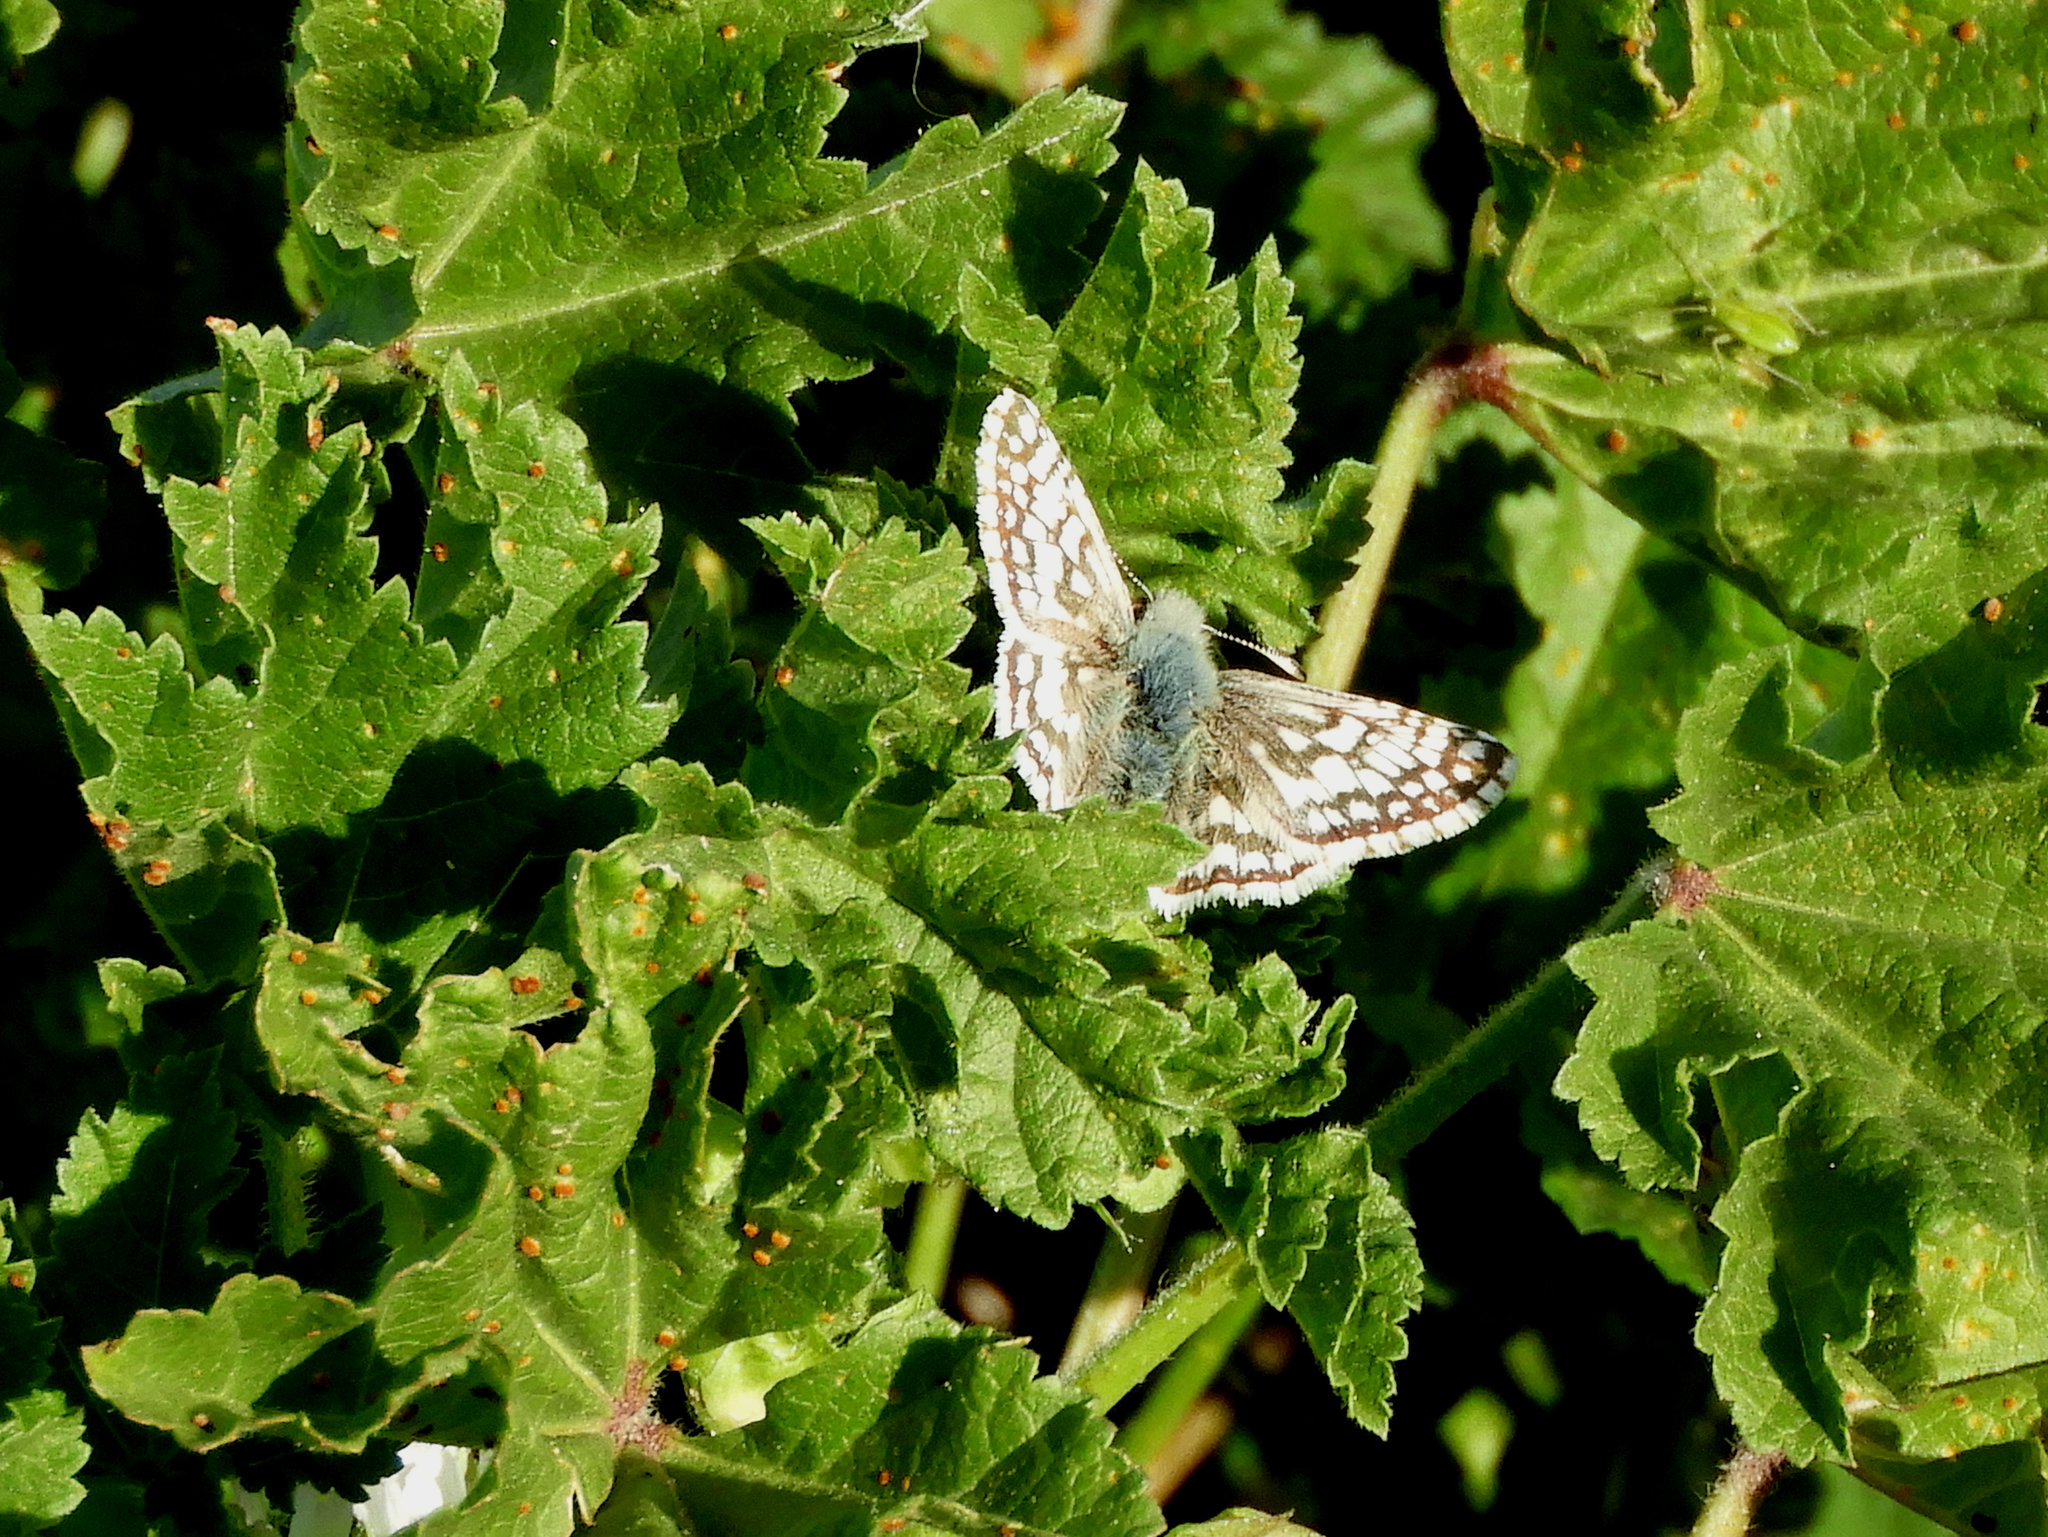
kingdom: Animalia
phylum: Arthropoda
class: Insecta
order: Lepidoptera
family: Hesperiidae
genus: Burnsius
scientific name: Burnsius communis
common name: Common checkered-skipper
